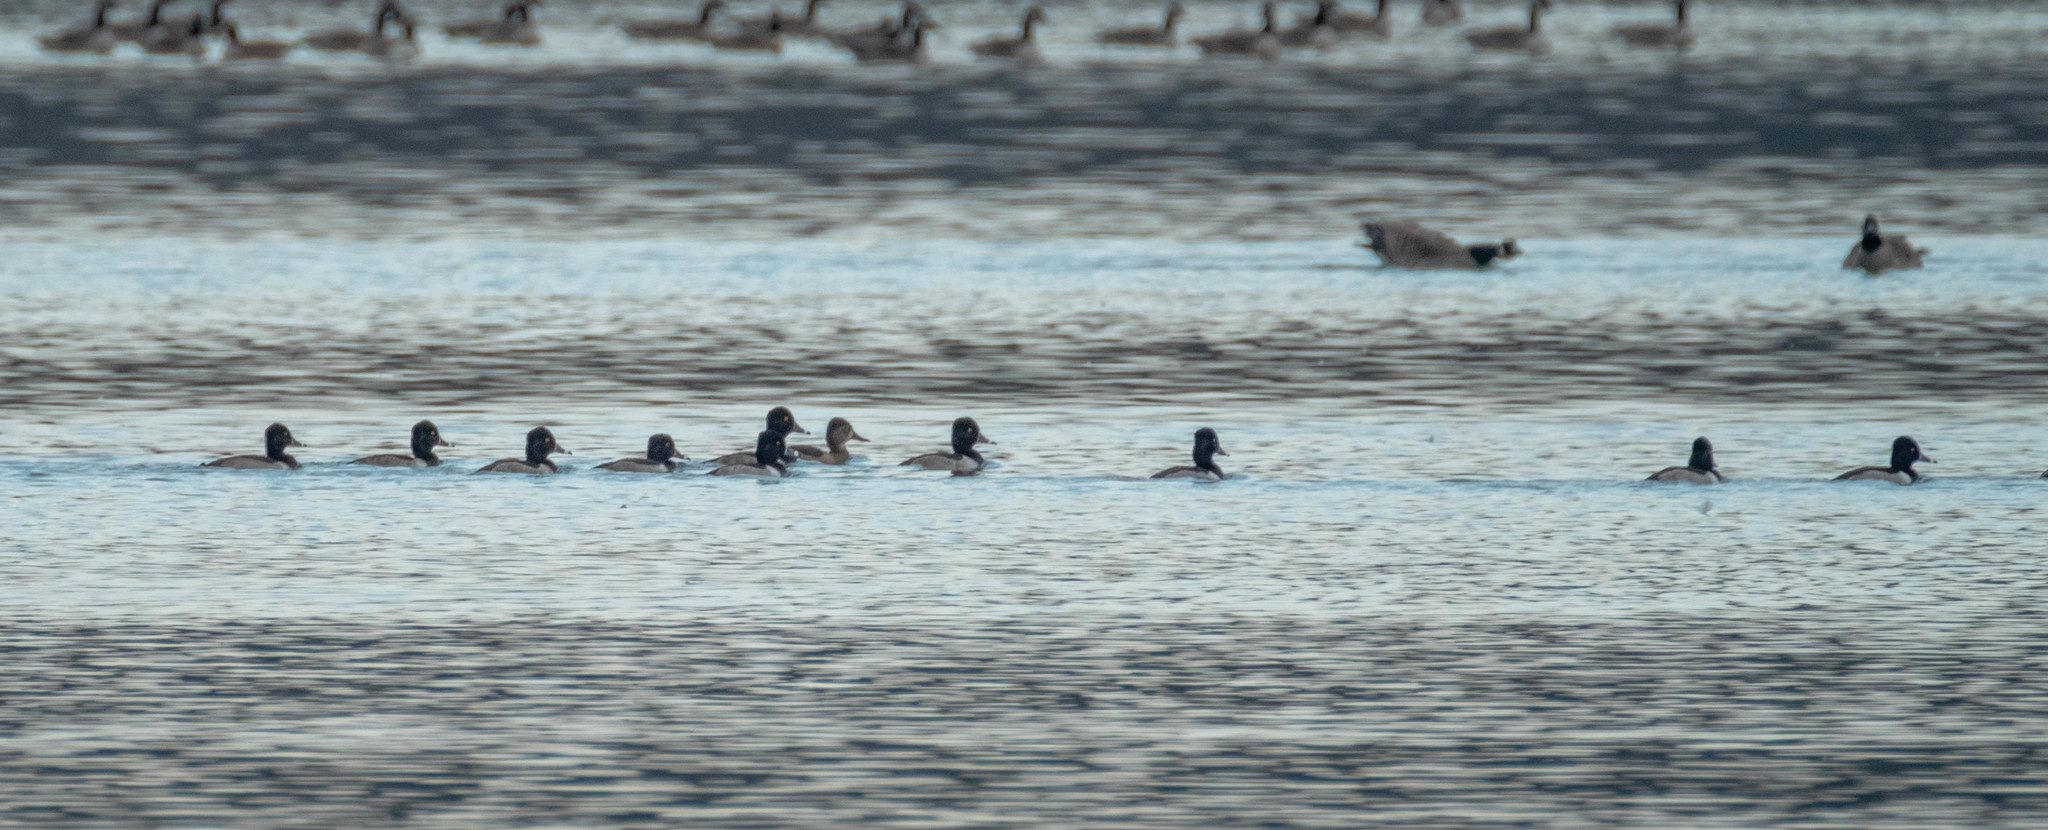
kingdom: Animalia
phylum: Chordata
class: Aves
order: Anseriformes
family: Anatidae
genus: Aythya
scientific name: Aythya collaris
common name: Ring-necked duck
